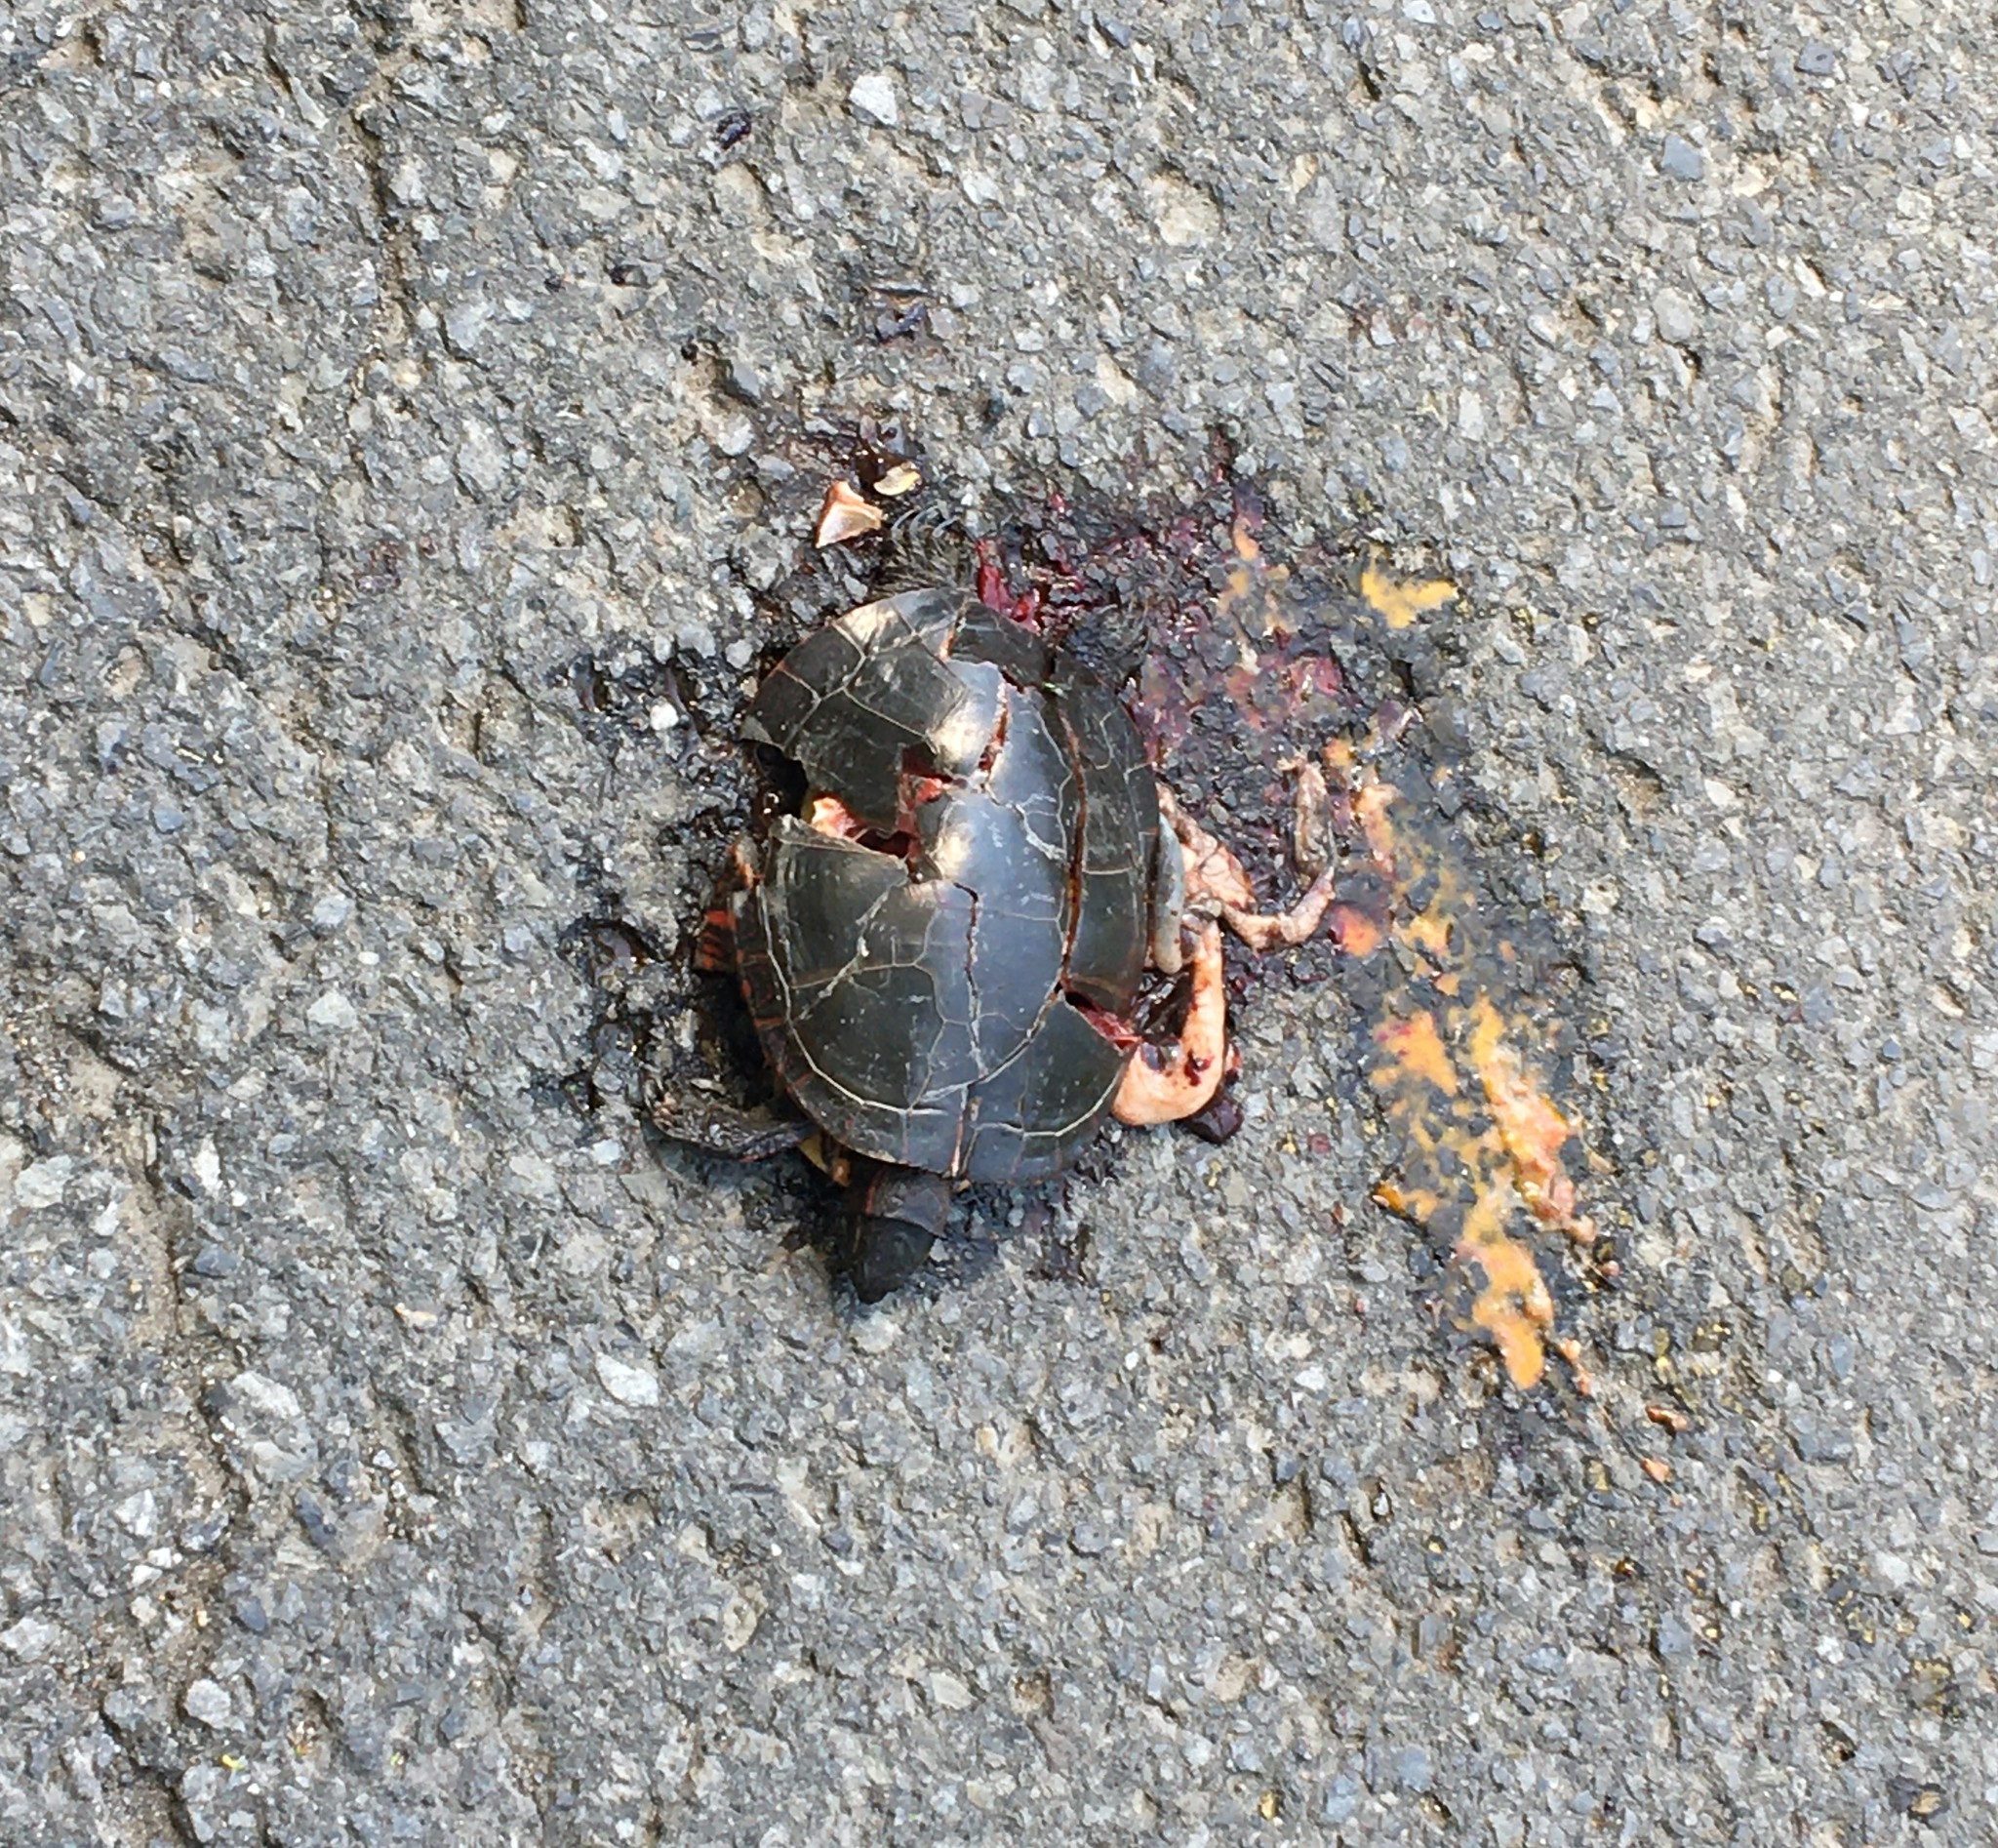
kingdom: Animalia
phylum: Chordata
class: Testudines
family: Emydidae
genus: Chrysemys
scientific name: Chrysemys picta
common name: Painted turtle
